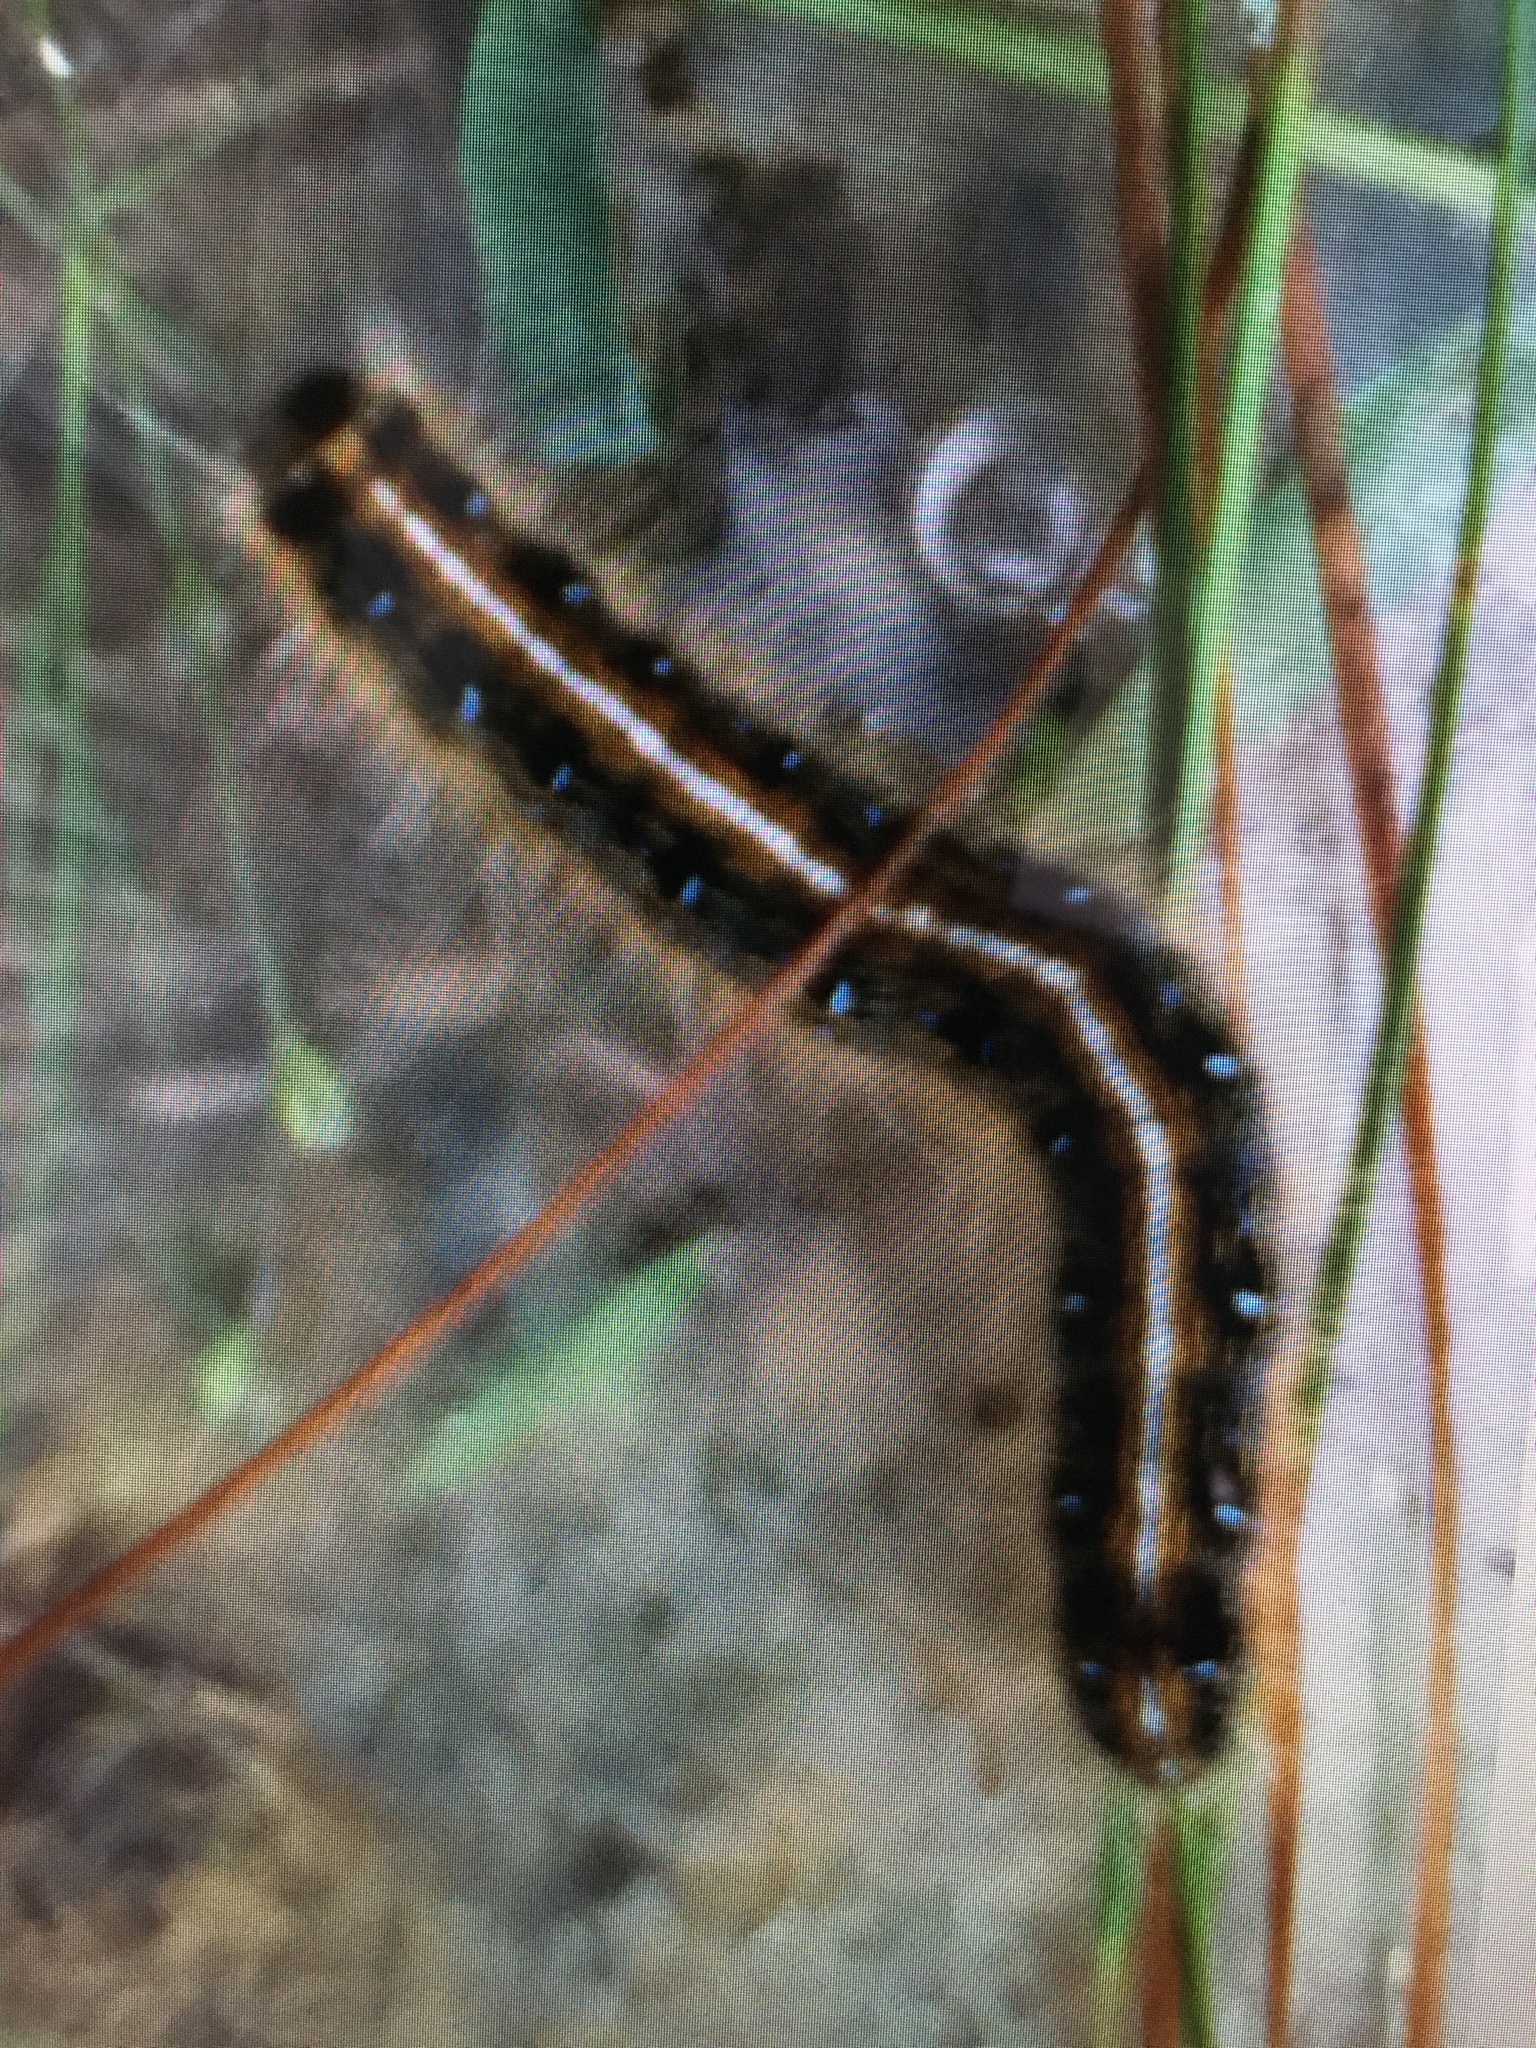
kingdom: Animalia
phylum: Arthropoda
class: Insecta
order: Lepidoptera
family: Lasiocampidae
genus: Malacosoma
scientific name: Malacosoma americana
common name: Eastern tent caterpillar moth
